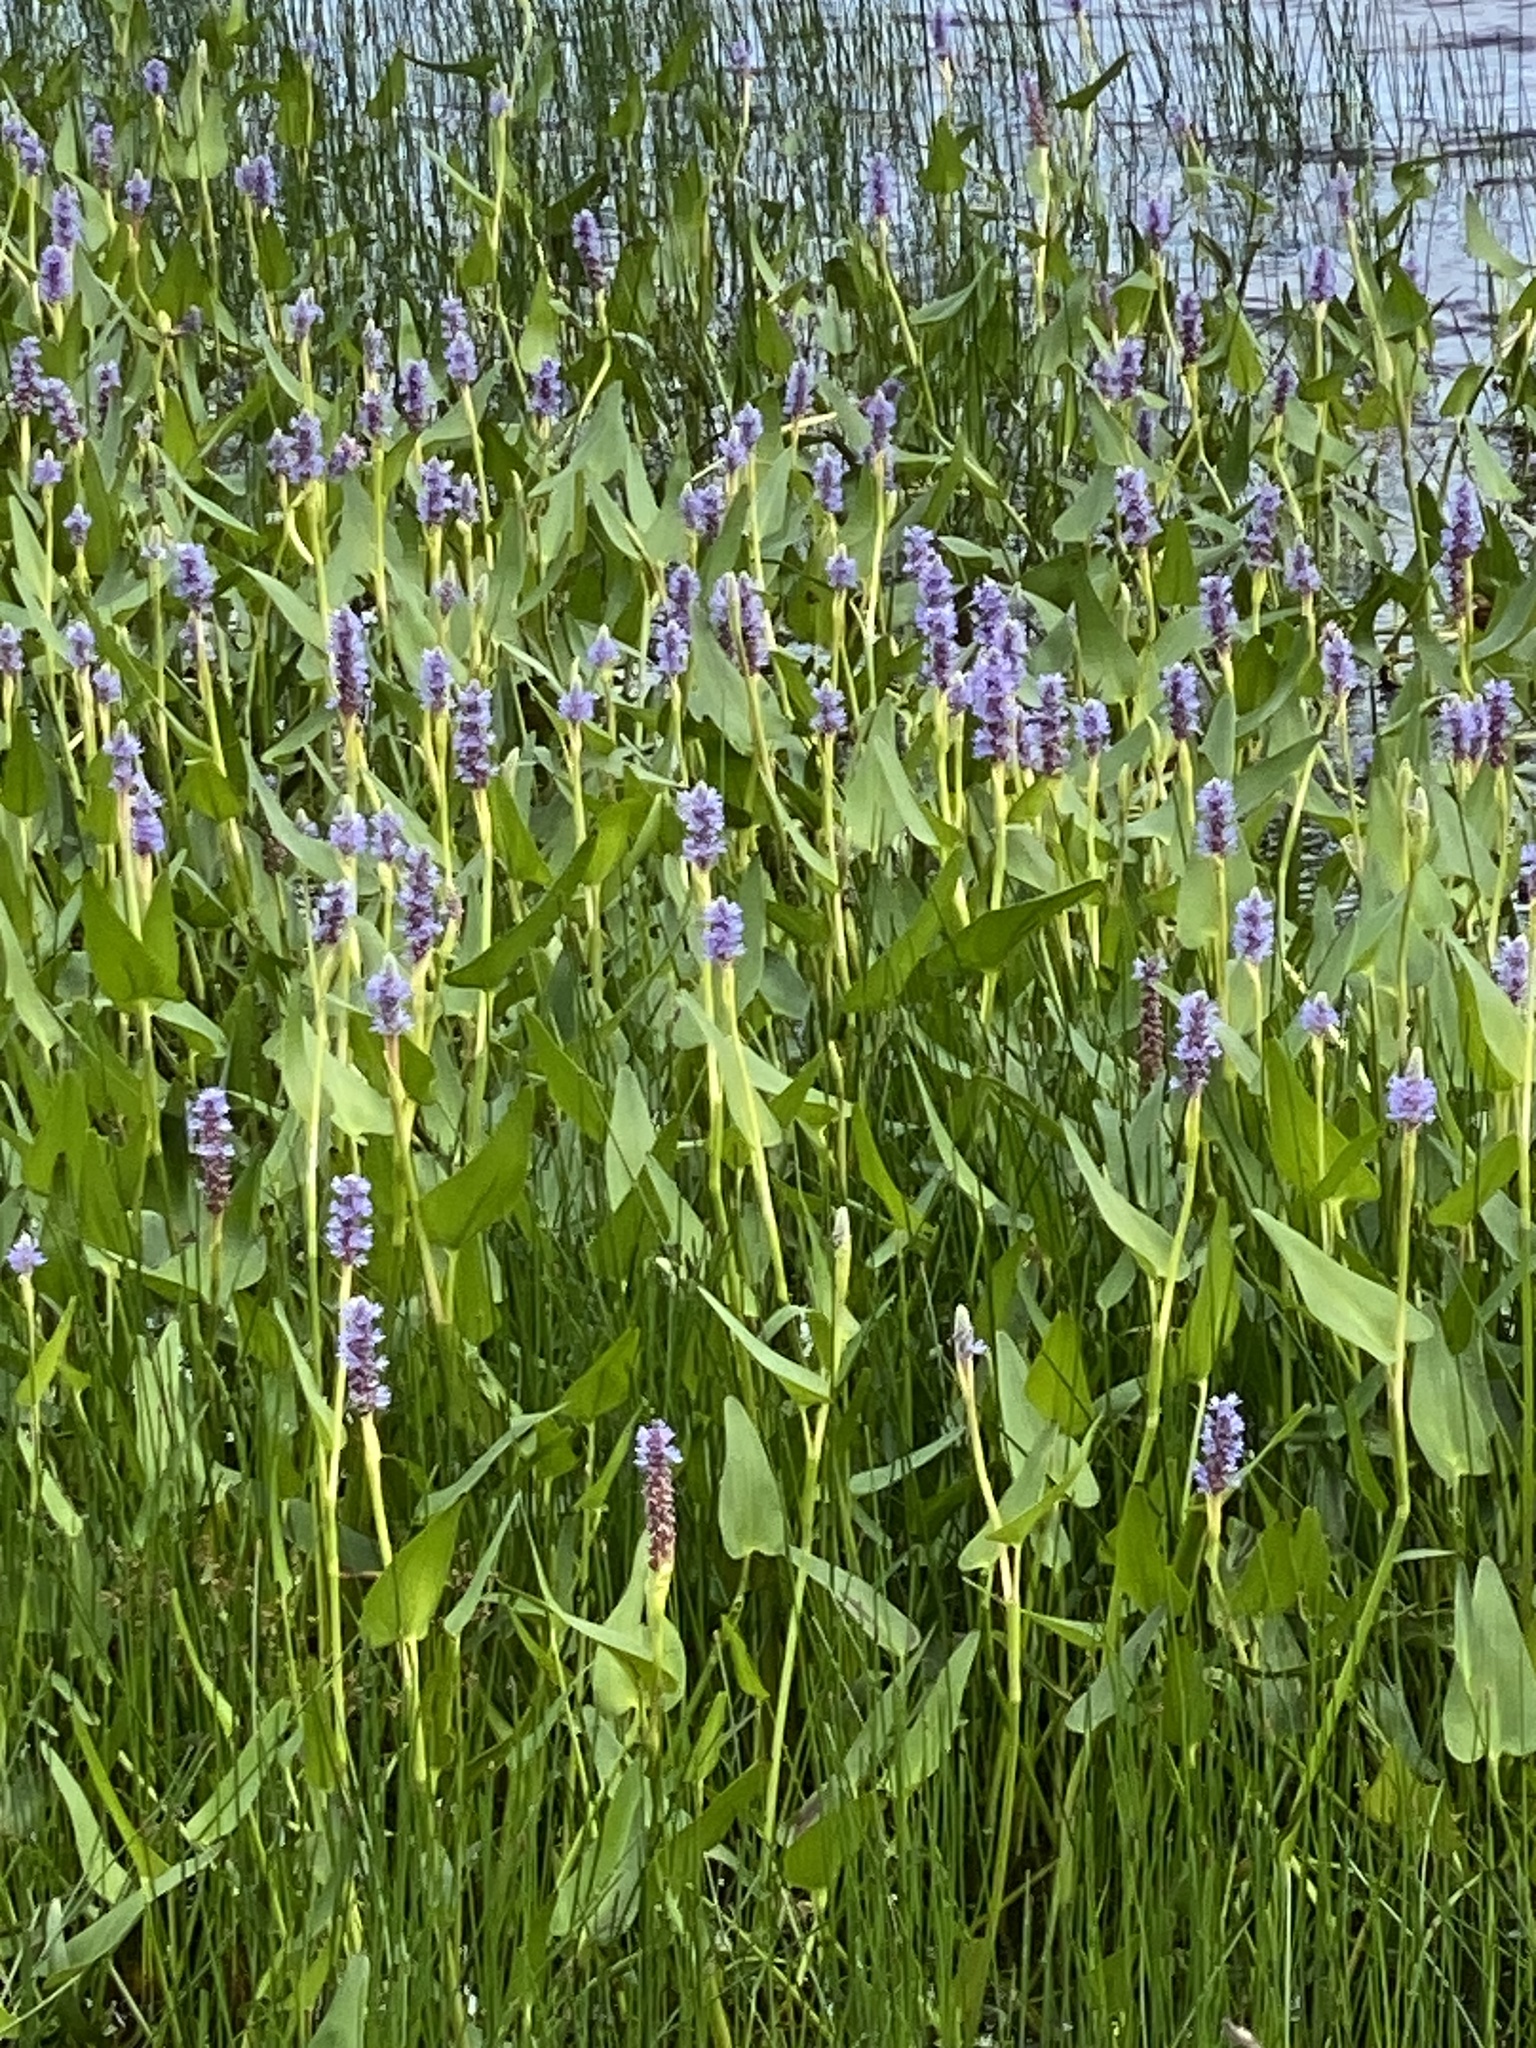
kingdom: Plantae
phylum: Tracheophyta
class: Liliopsida
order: Commelinales
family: Pontederiaceae
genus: Pontederia
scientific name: Pontederia cordata
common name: Pickerelweed
